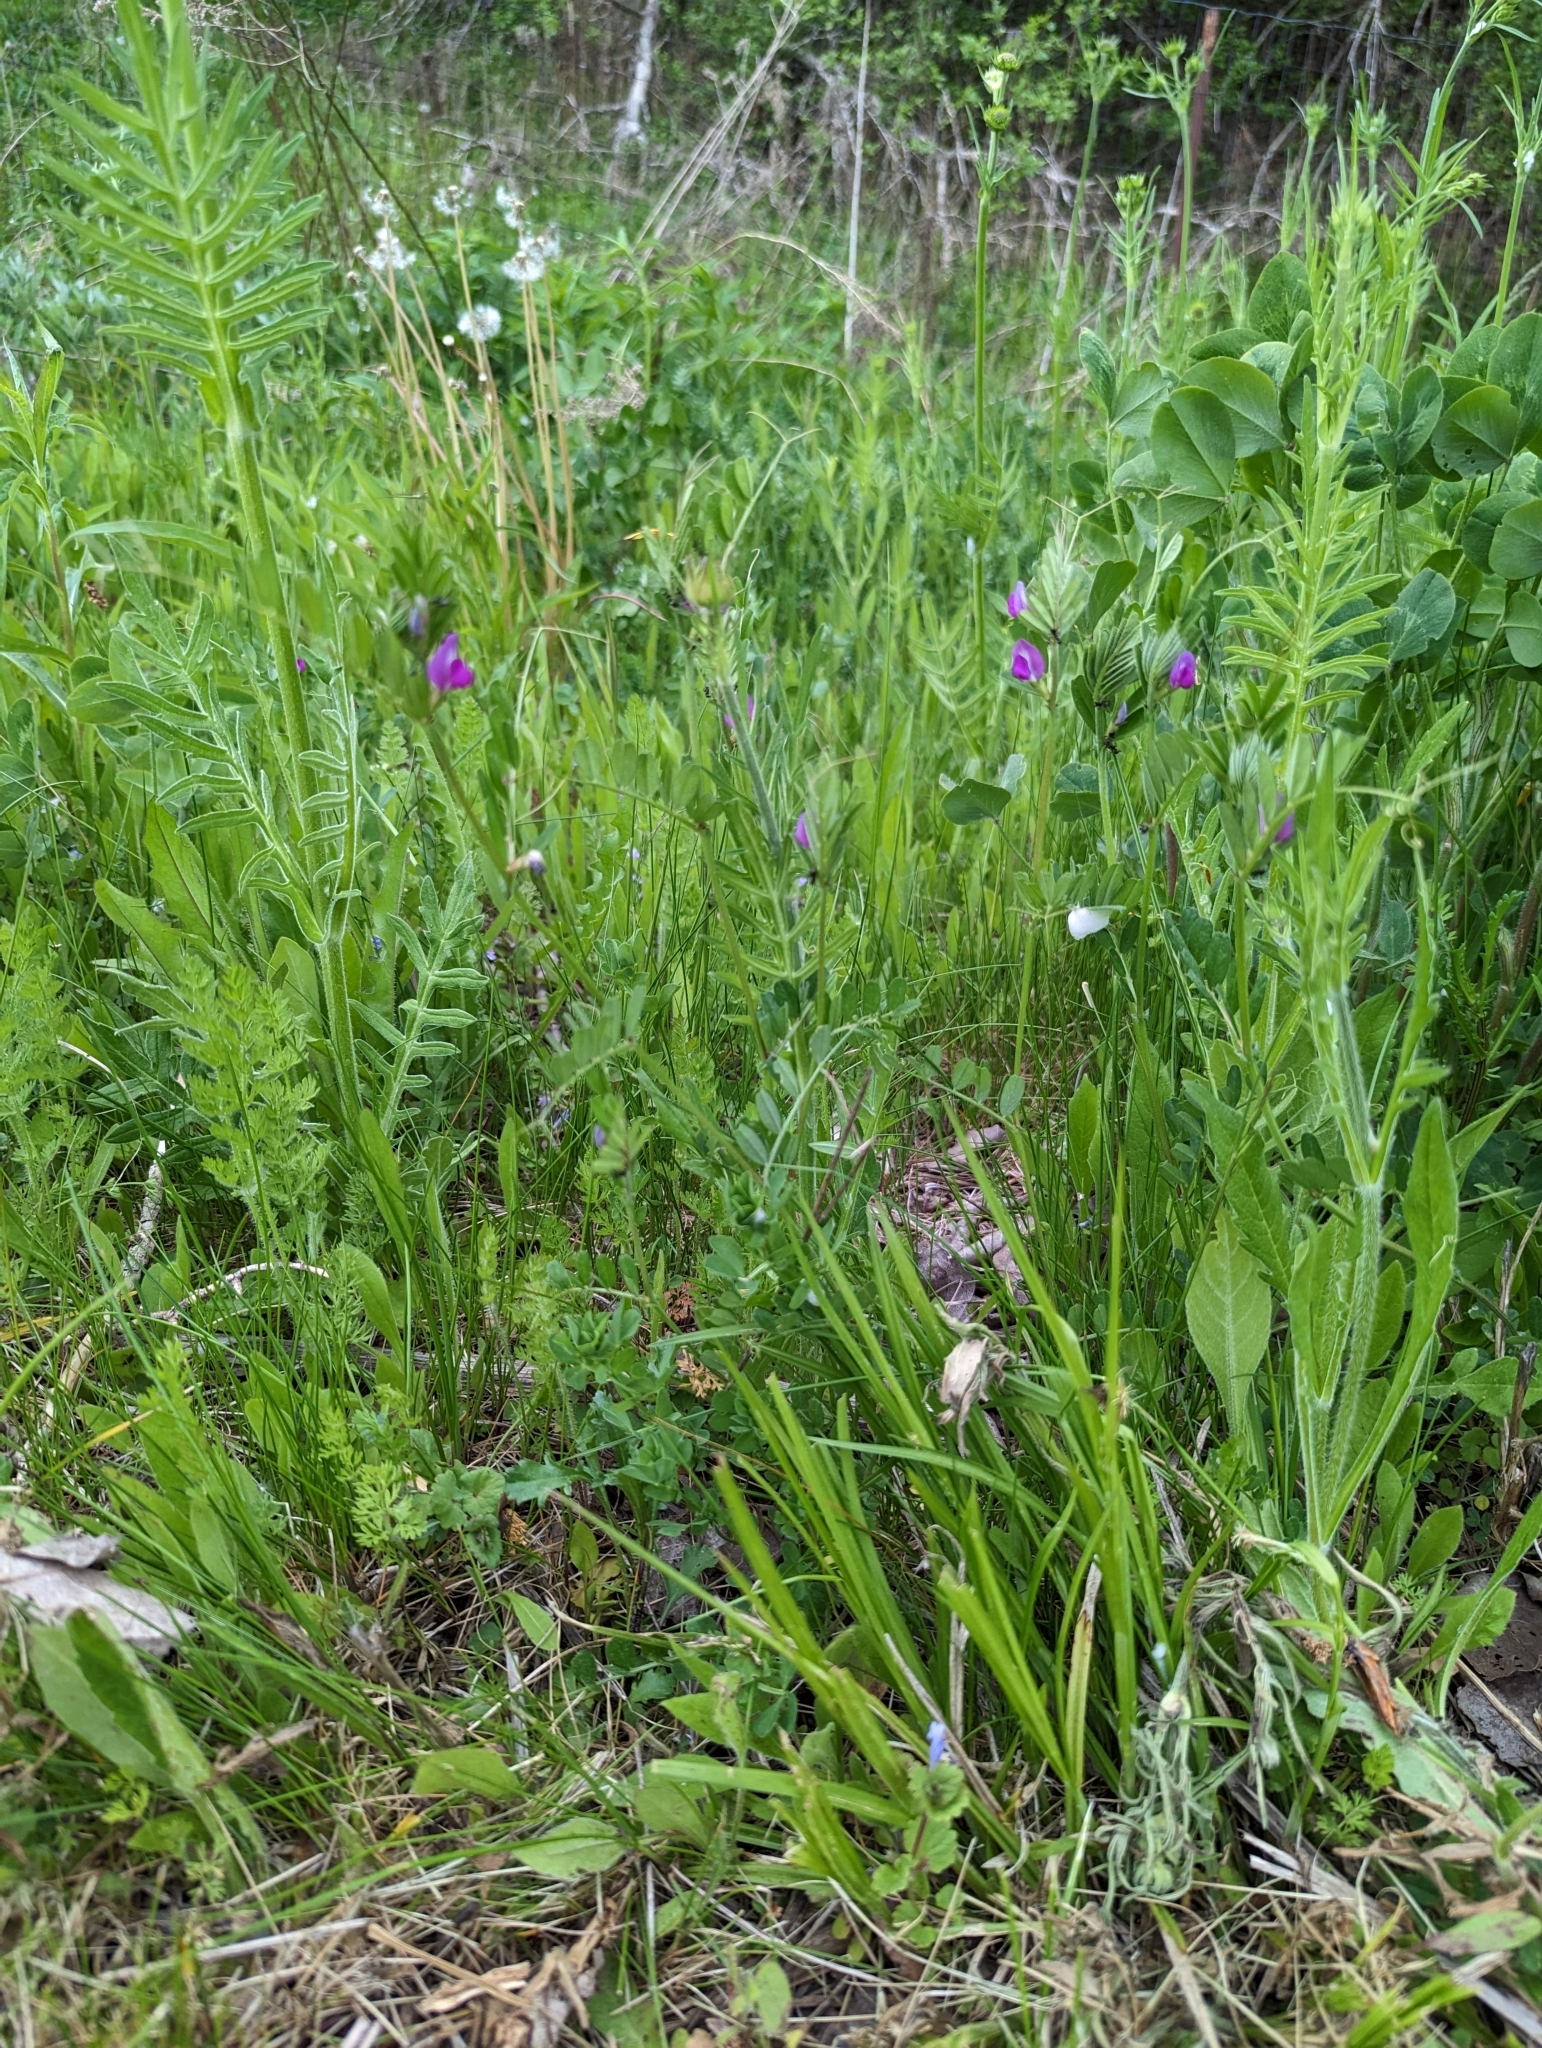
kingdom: Plantae
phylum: Tracheophyta
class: Magnoliopsida
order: Fabales
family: Fabaceae
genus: Vicia
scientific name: Vicia sativa
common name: Garden vetch
